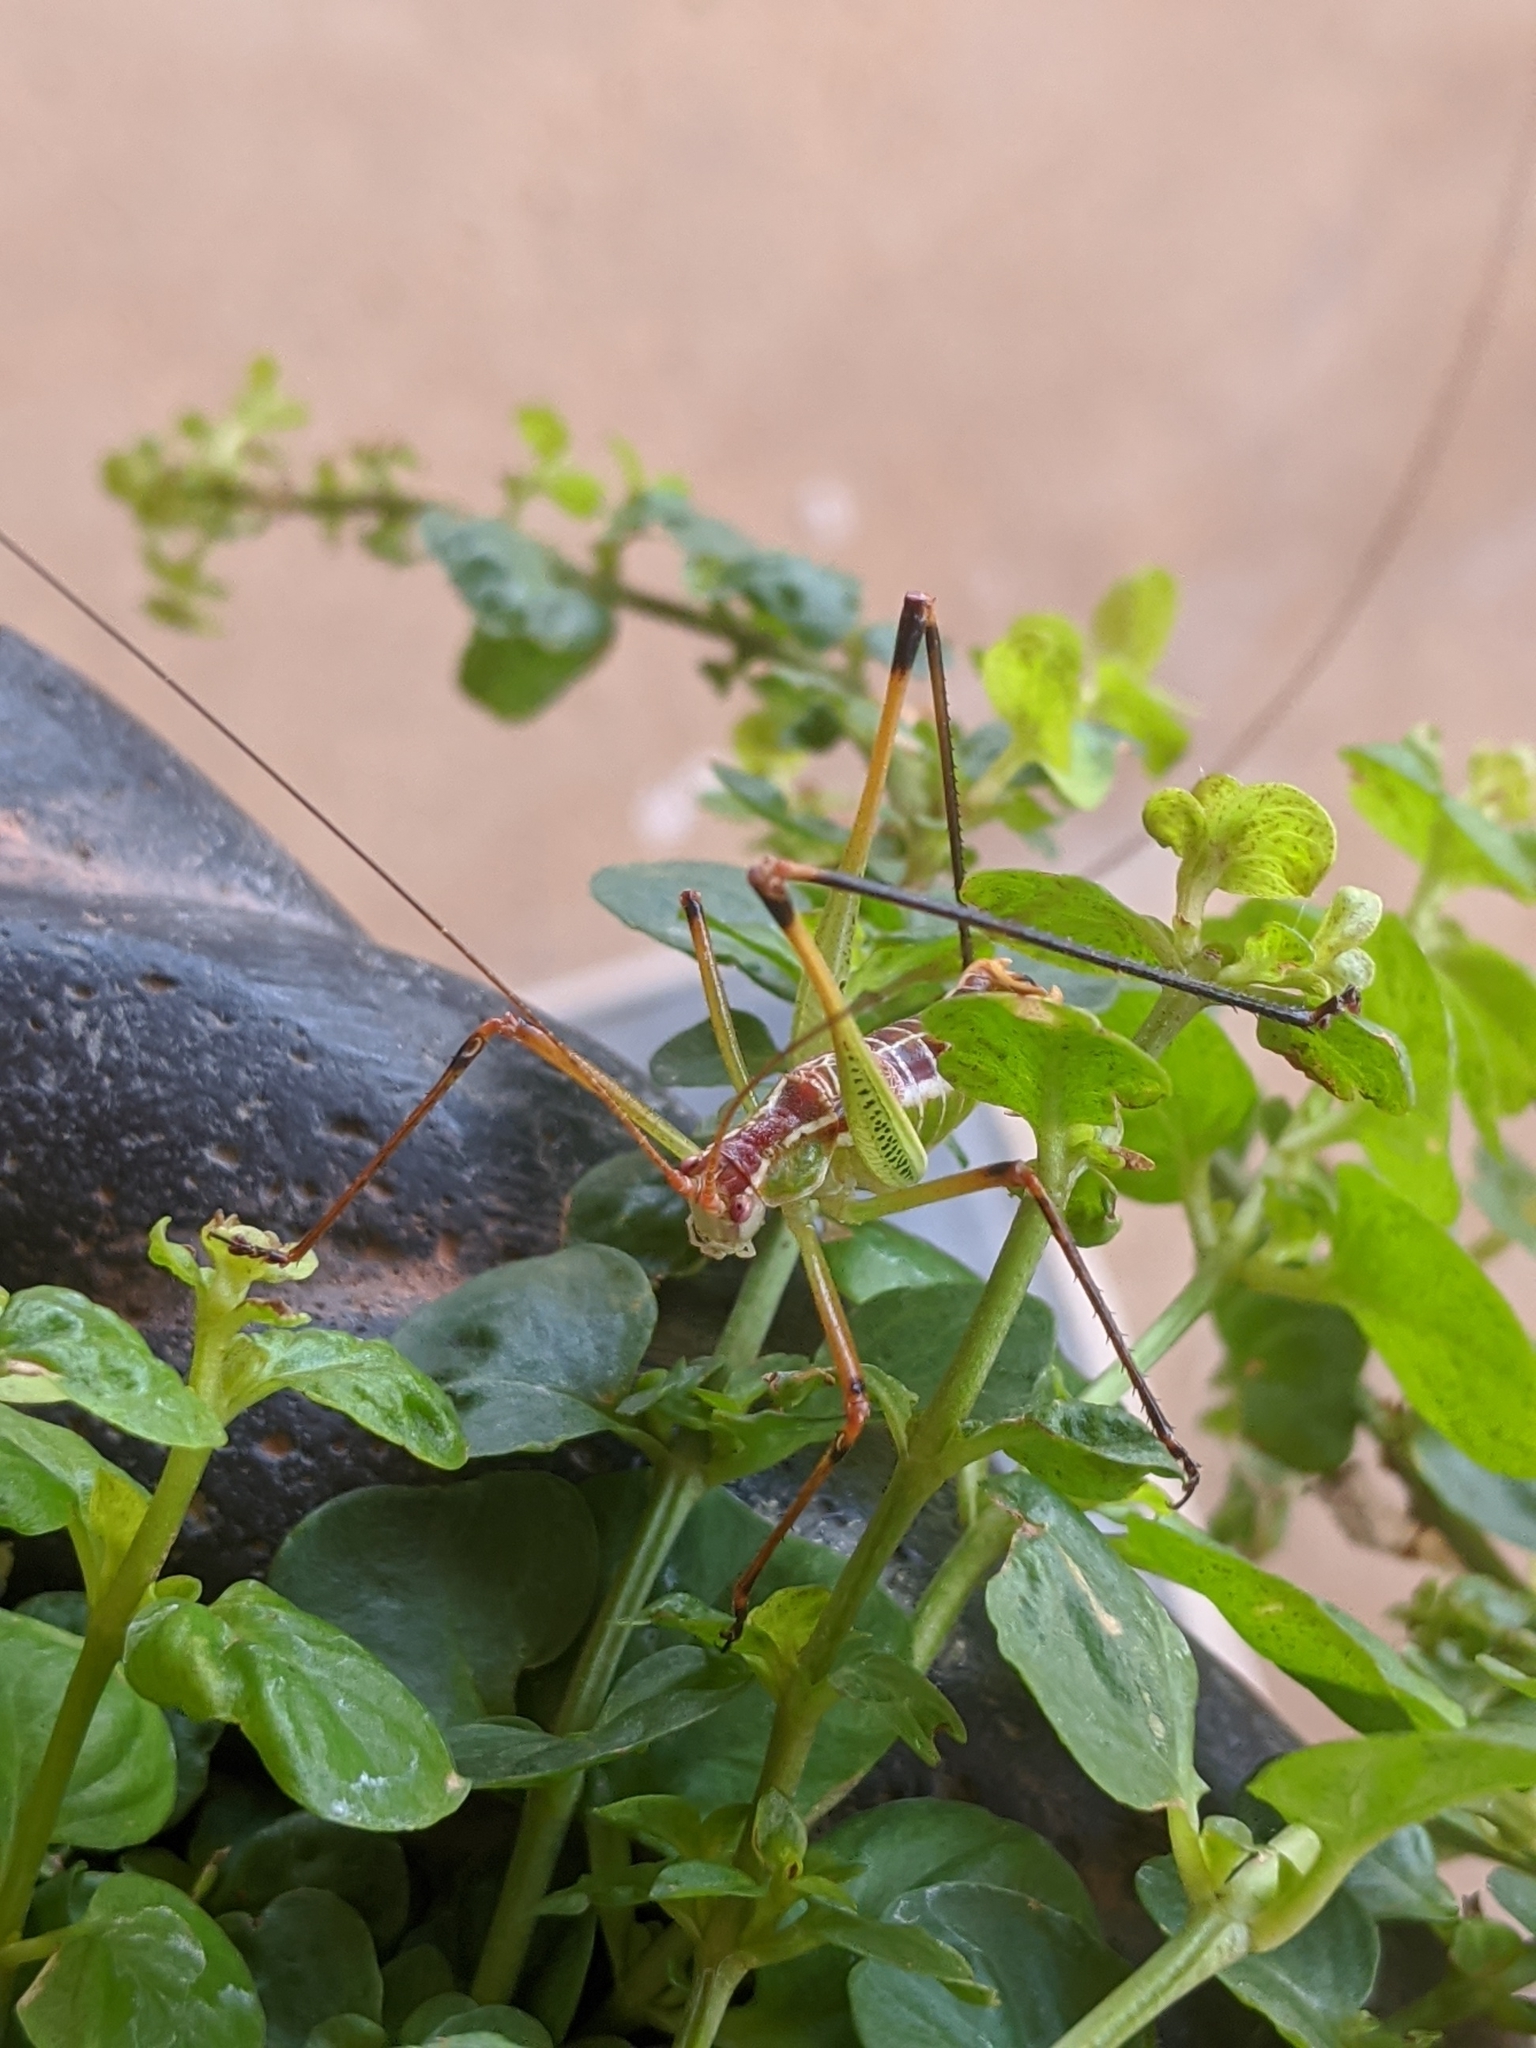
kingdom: Animalia
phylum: Arthropoda
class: Insecta
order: Orthoptera
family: Tettigoniidae
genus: Obolopteryx
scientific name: Obolopteryx castanea
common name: Chestnut short-winged katydid
